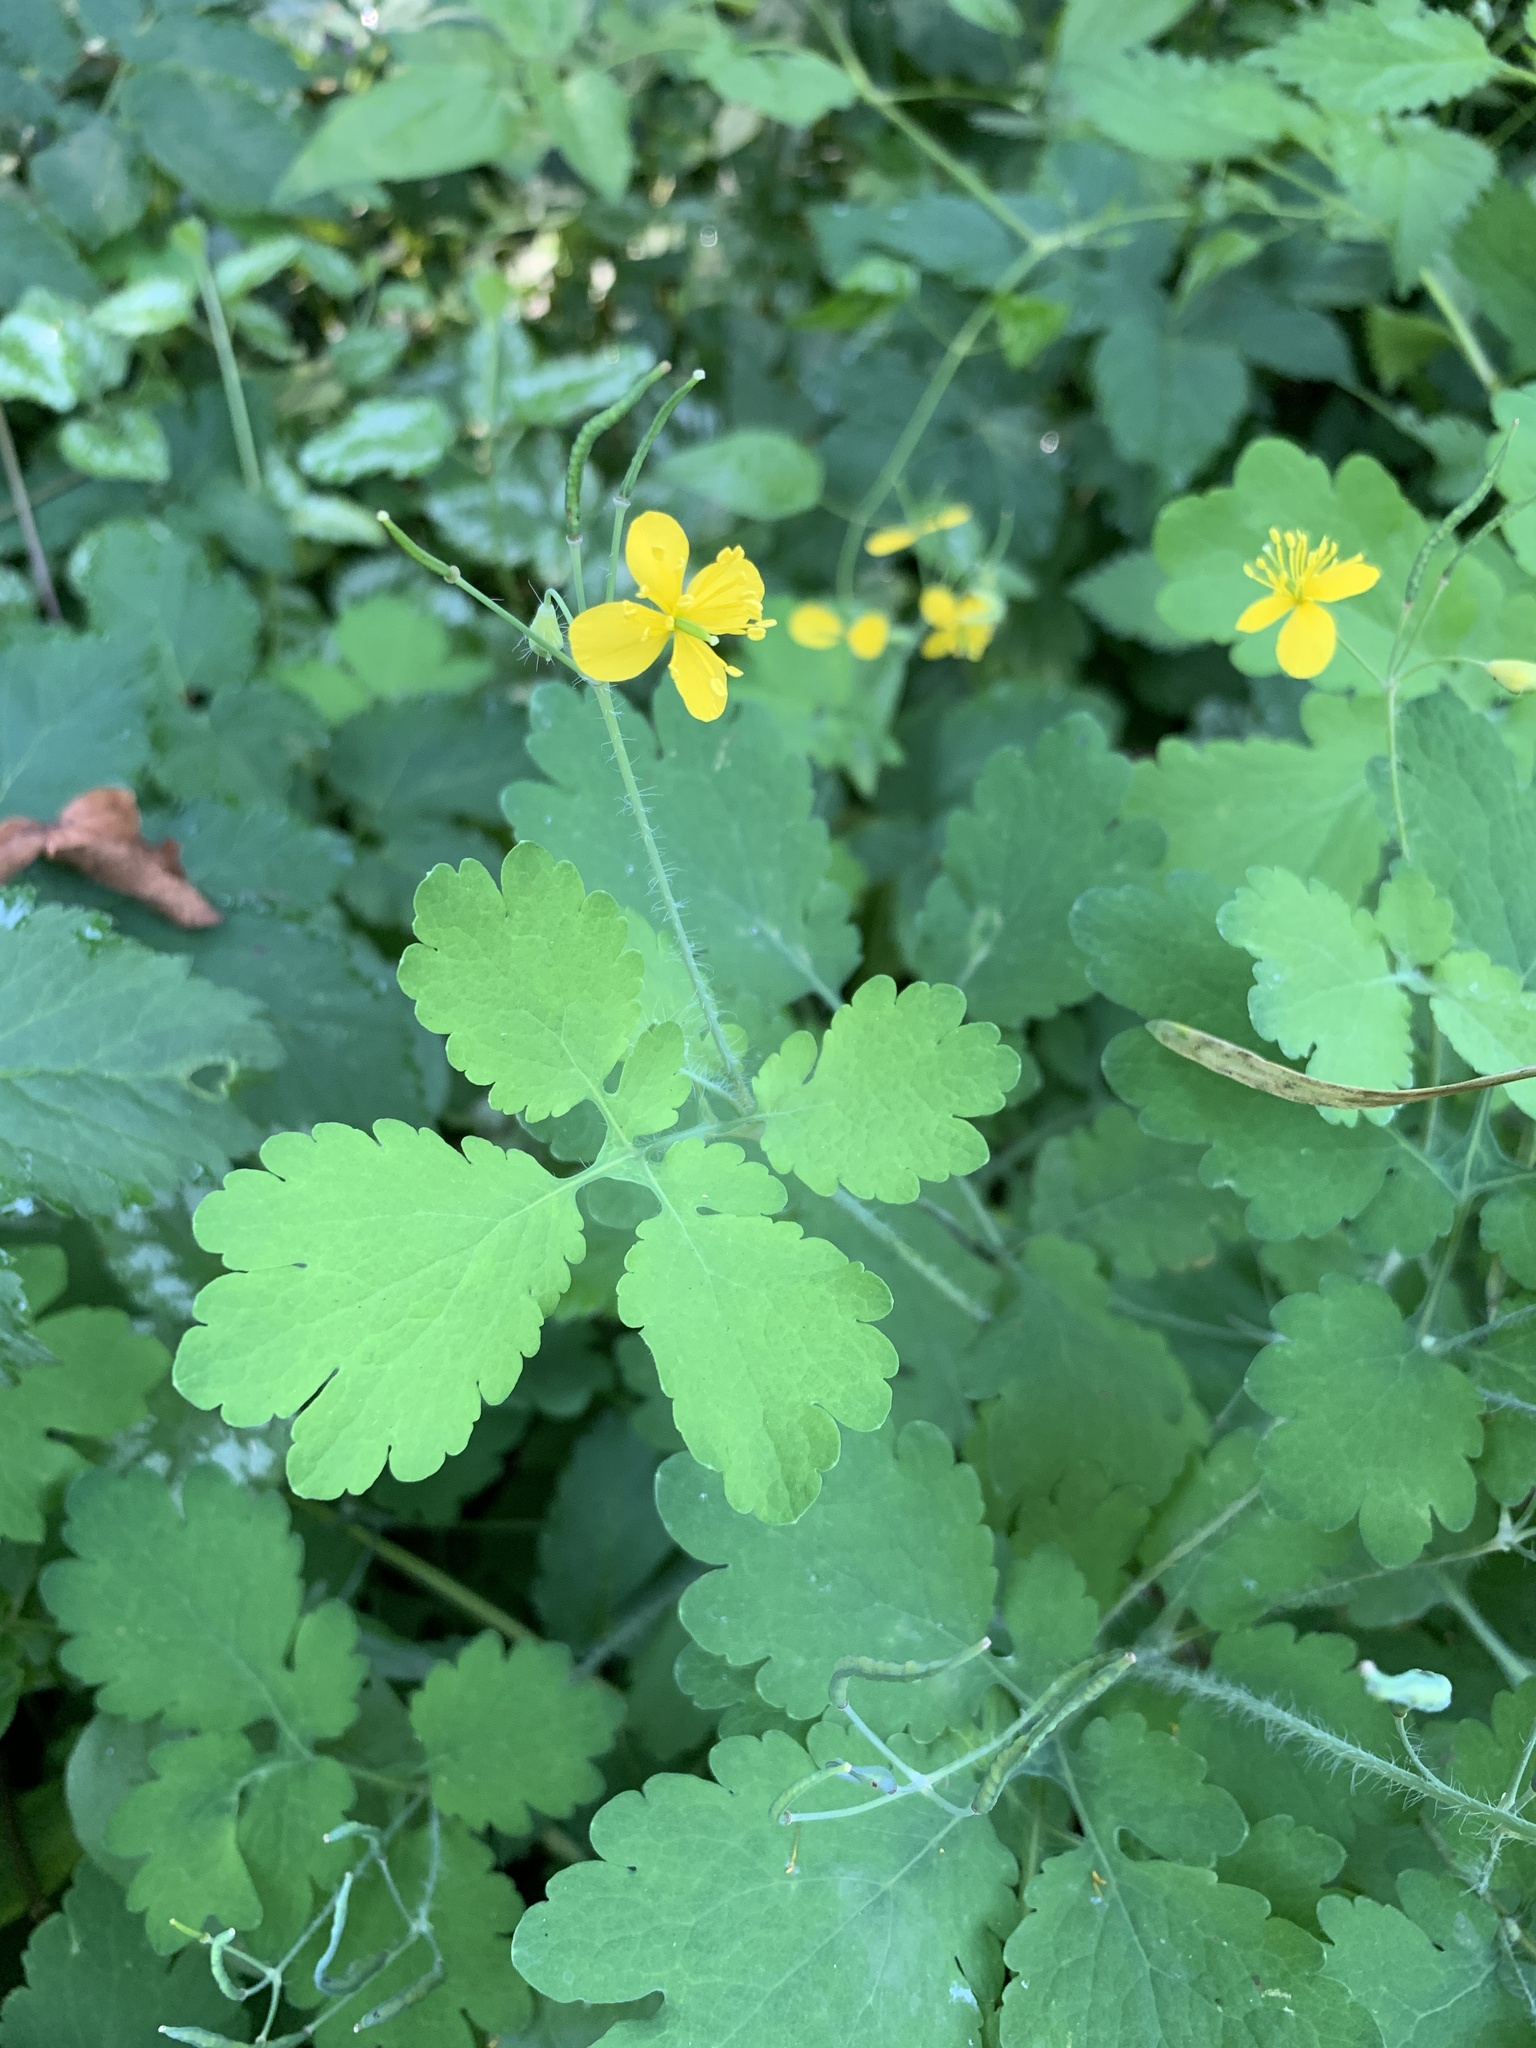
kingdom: Plantae
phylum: Tracheophyta
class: Magnoliopsida
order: Ranunculales
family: Papaveraceae
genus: Chelidonium
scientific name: Chelidonium majus
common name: Greater celandine
